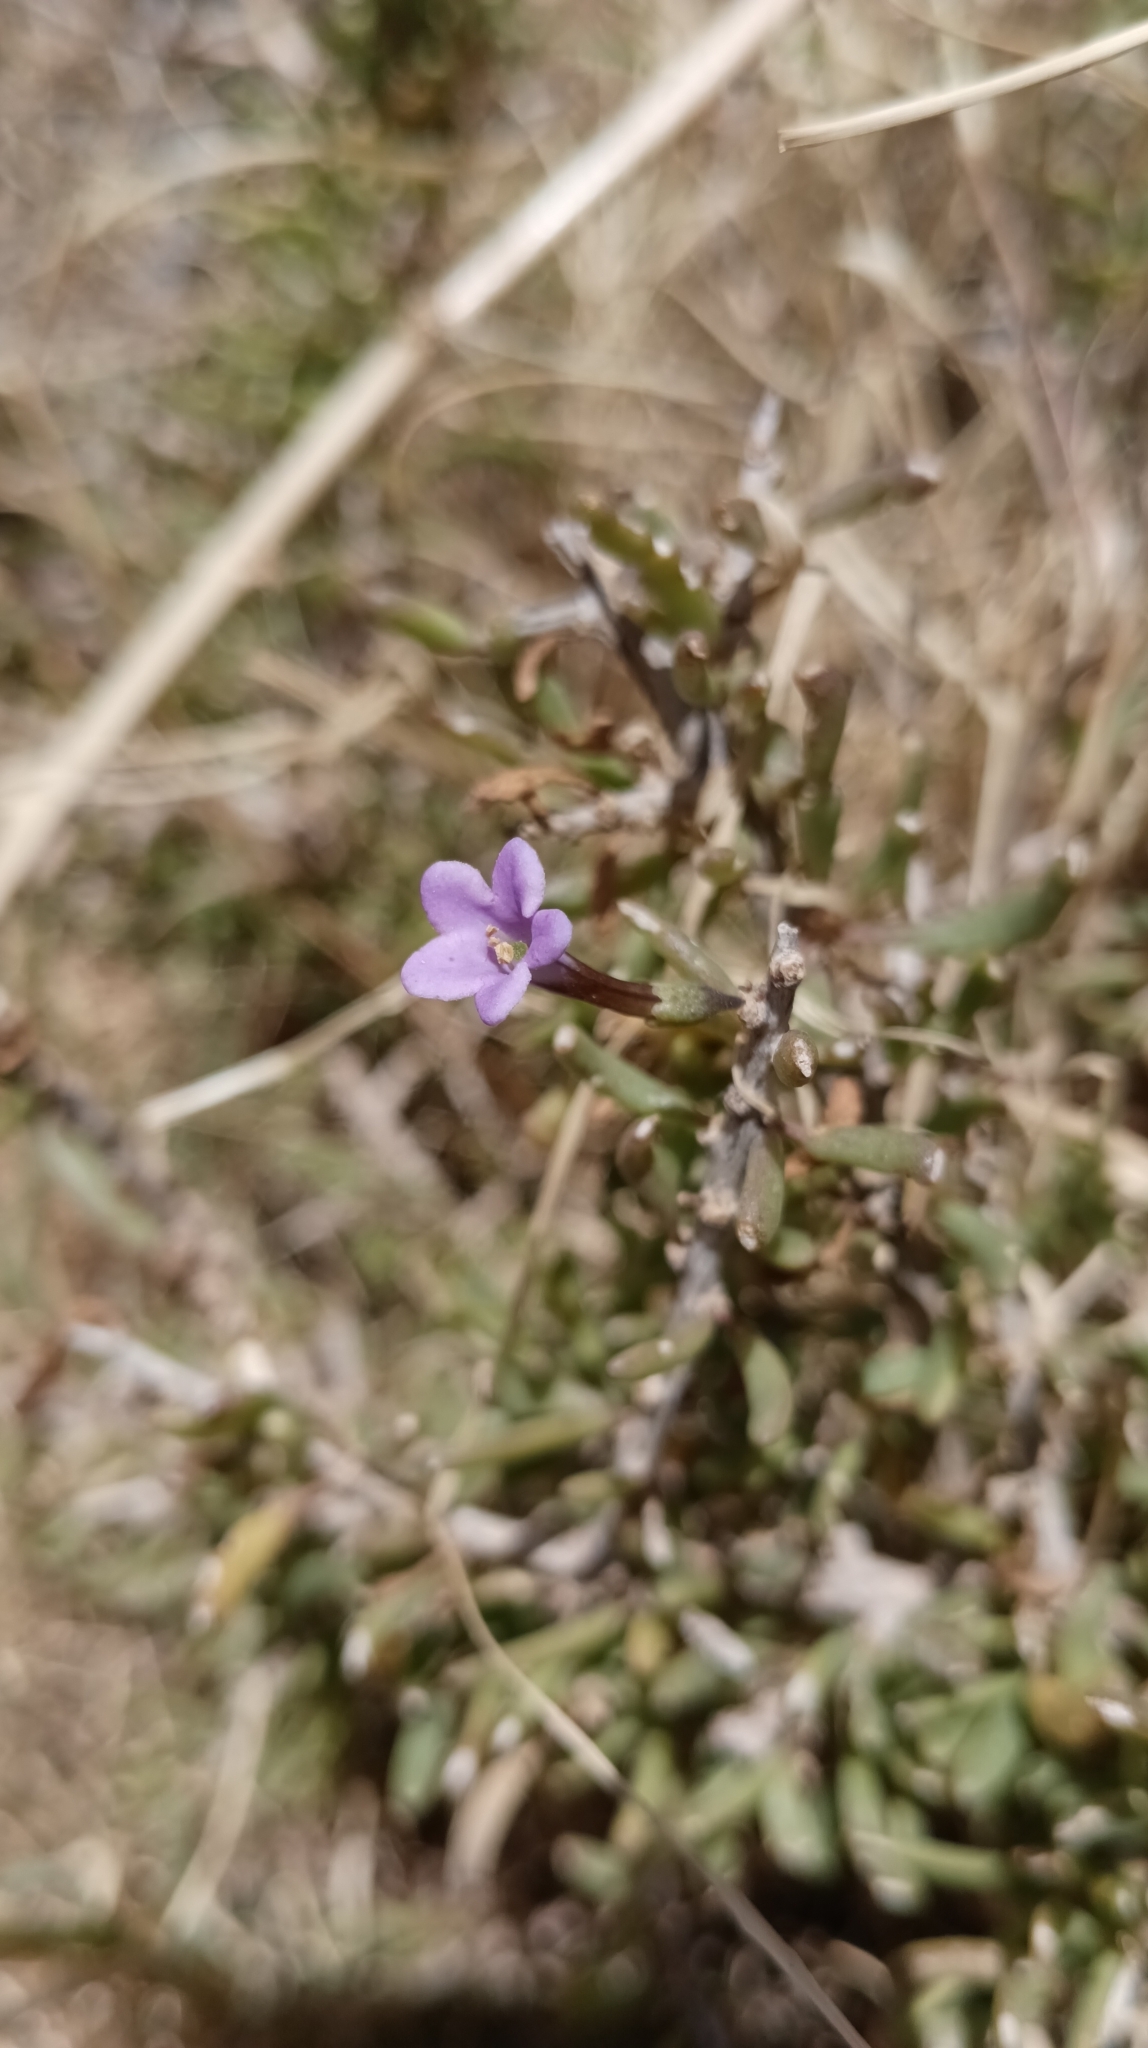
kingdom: Plantae
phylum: Tracheophyta
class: Magnoliopsida
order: Solanales
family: Solanaceae
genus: Lycium
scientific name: Lycium intricatum
